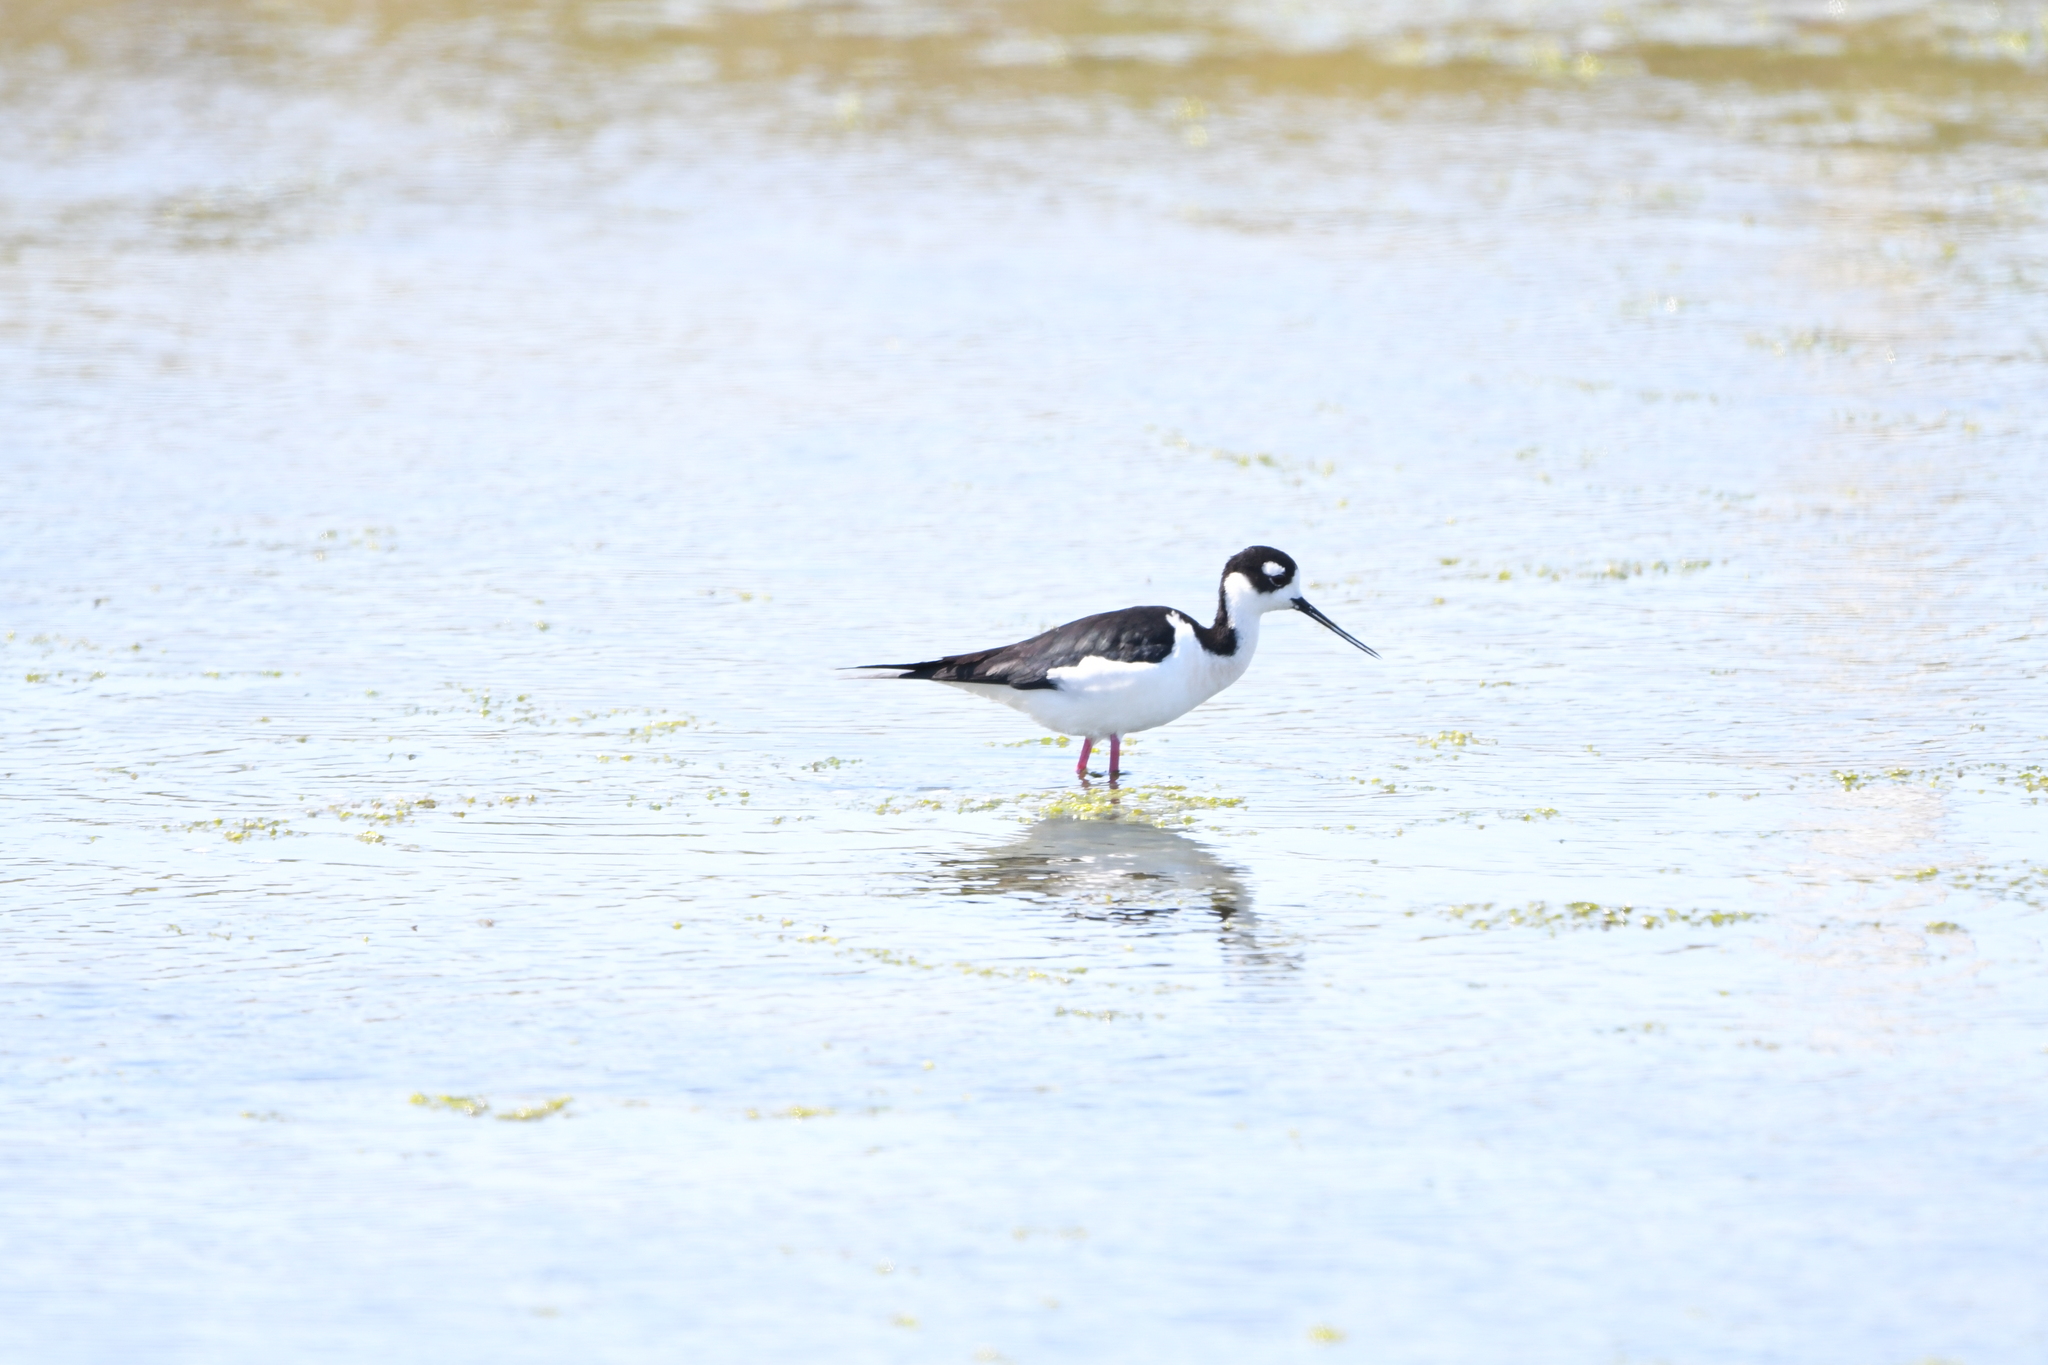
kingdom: Animalia
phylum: Chordata
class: Aves
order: Charadriiformes
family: Recurvirostridae
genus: Himantopus
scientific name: Himantopus mexicanus
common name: Black-necked stilt
